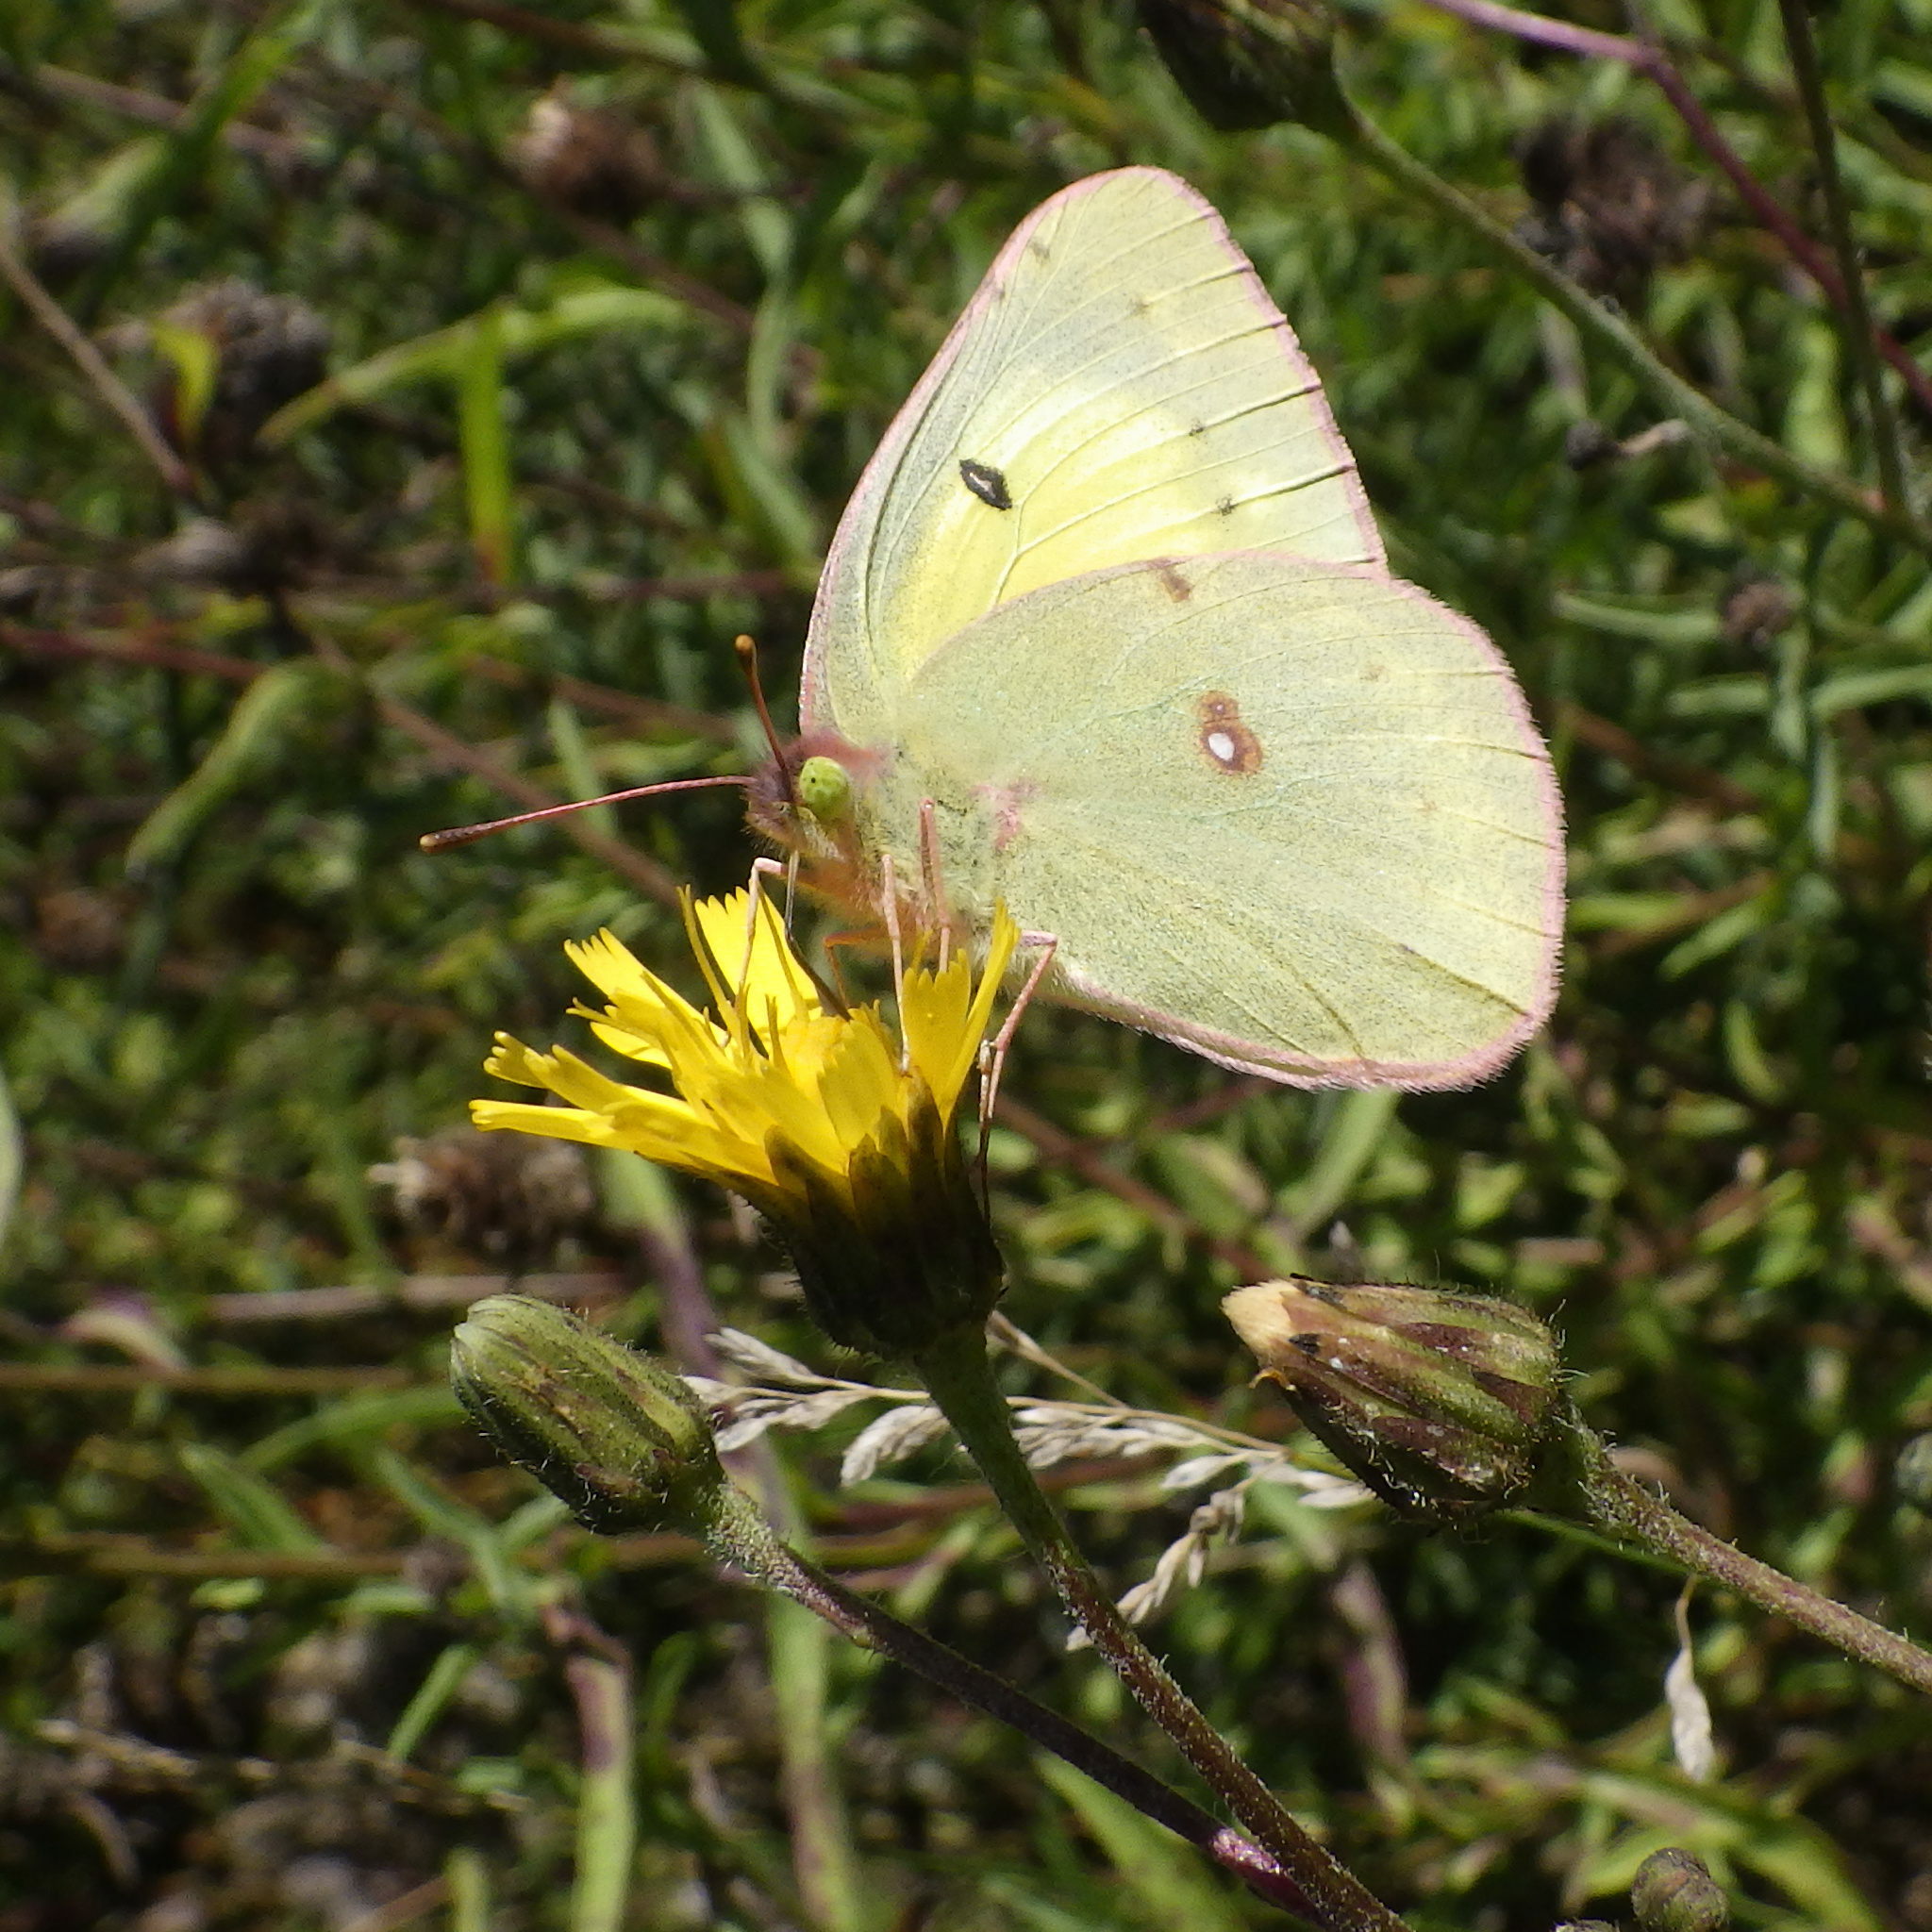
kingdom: Animalia
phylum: Arthropoda
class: Insecta
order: Lepidoptera
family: Pieridae
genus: Colias
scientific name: Colias philodice
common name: Clouded sulphur
